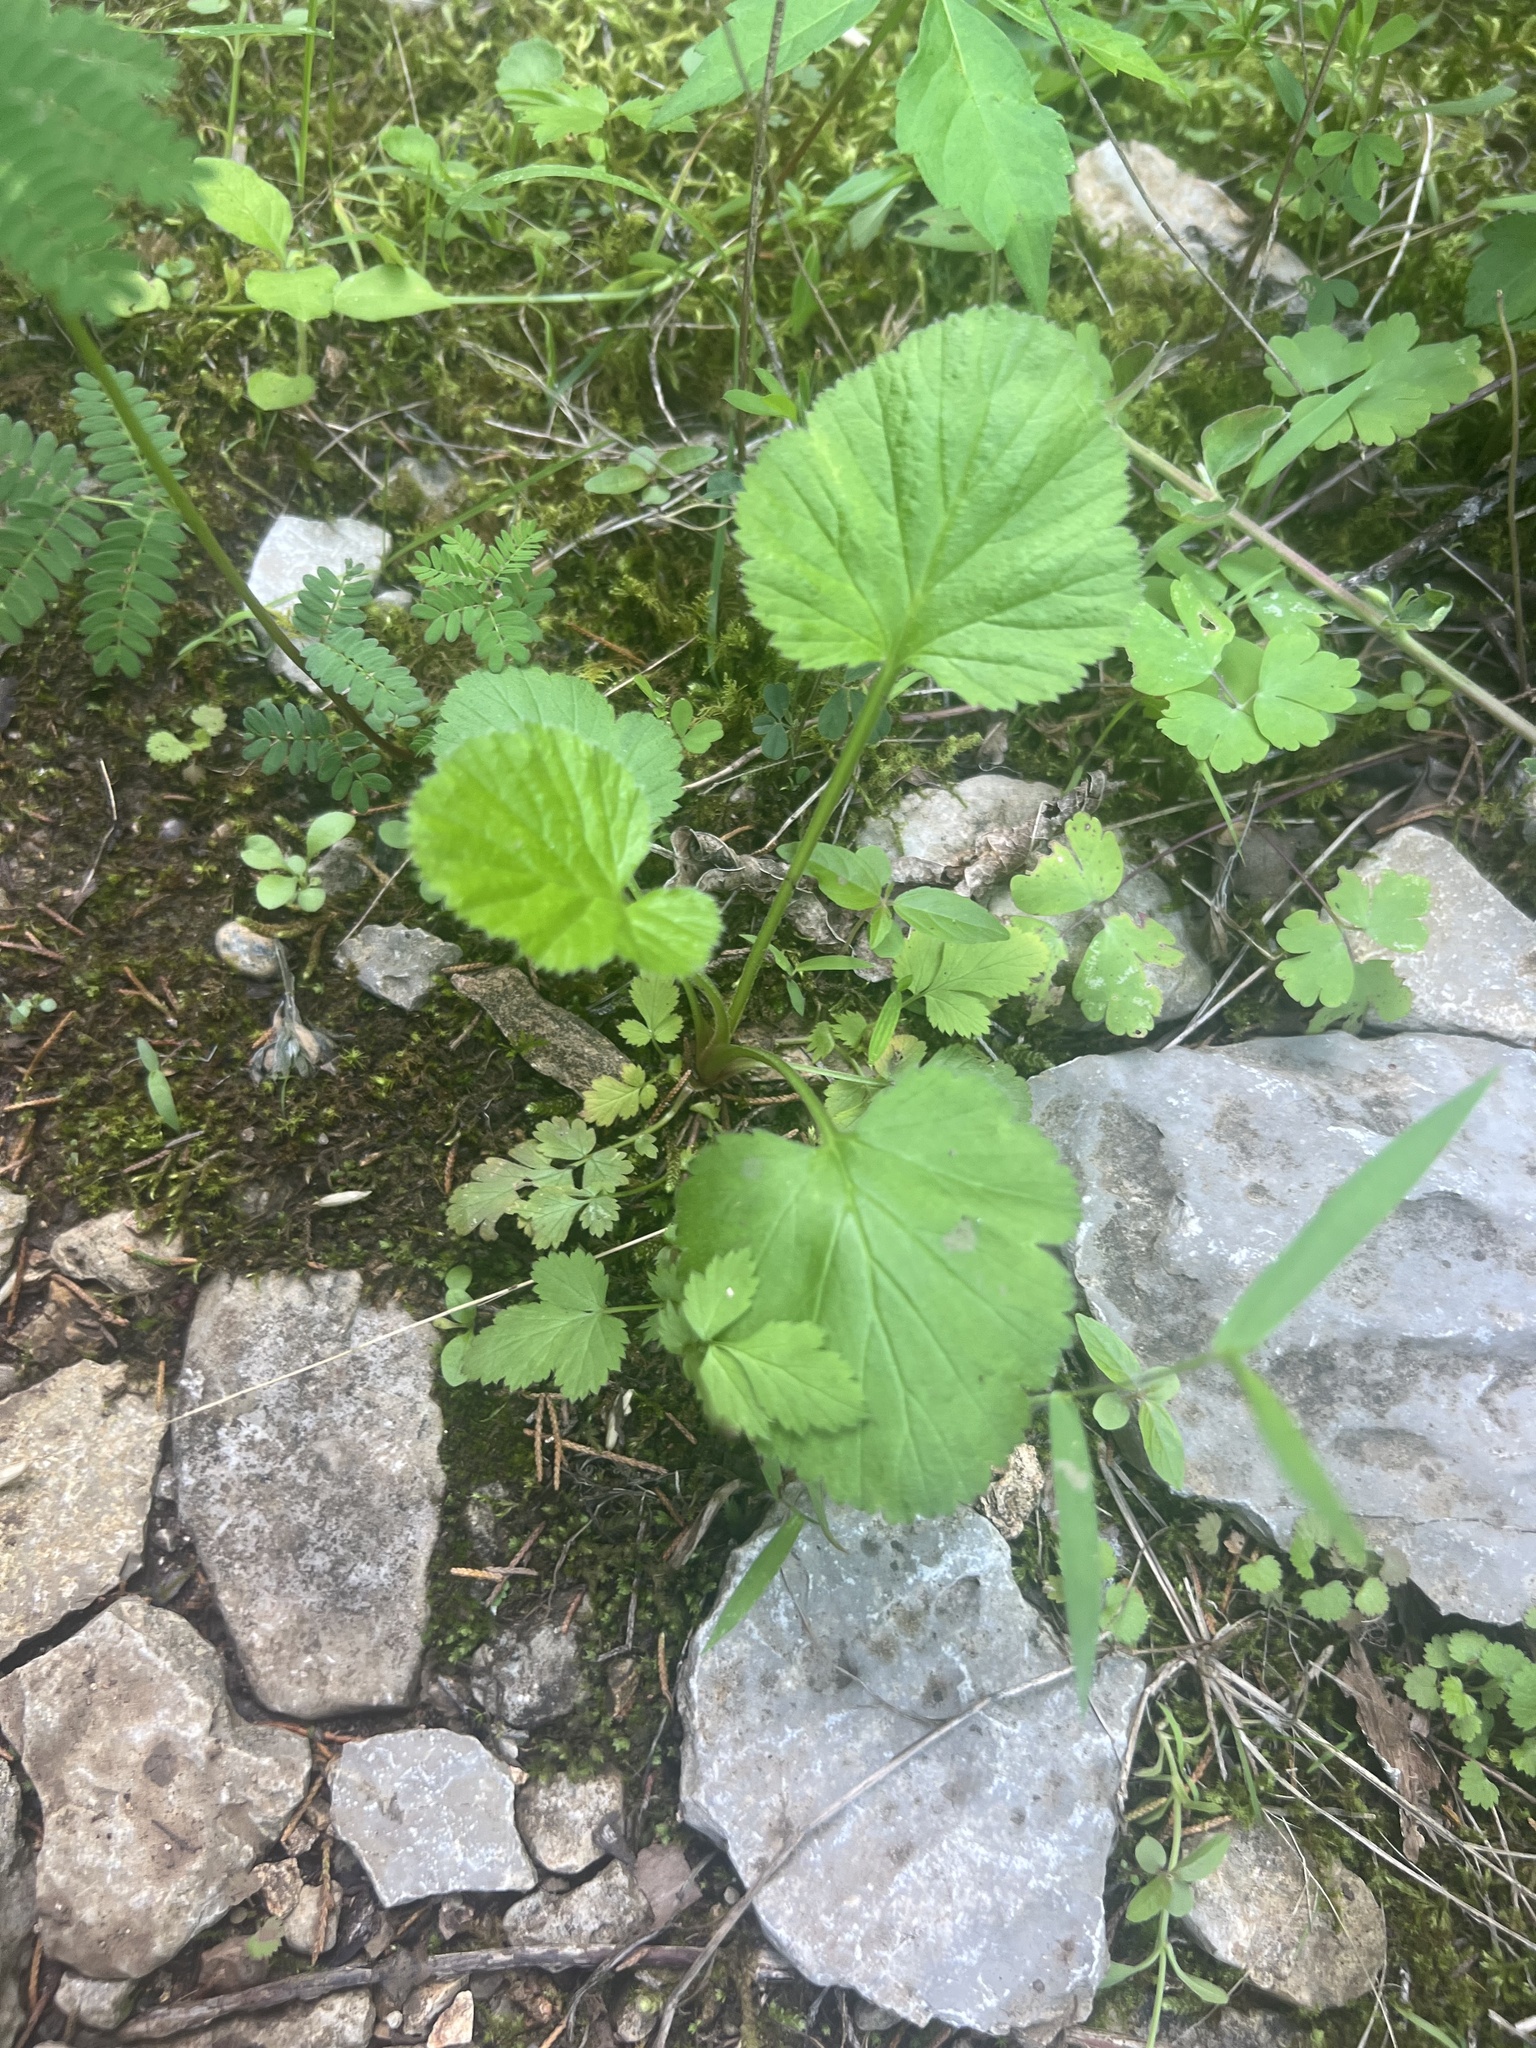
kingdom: Plantae
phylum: Tracheophyta
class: Magnoliopsida
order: Rosales
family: Rosaceae
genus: Geum
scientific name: Geum virginianum
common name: Cream avens
